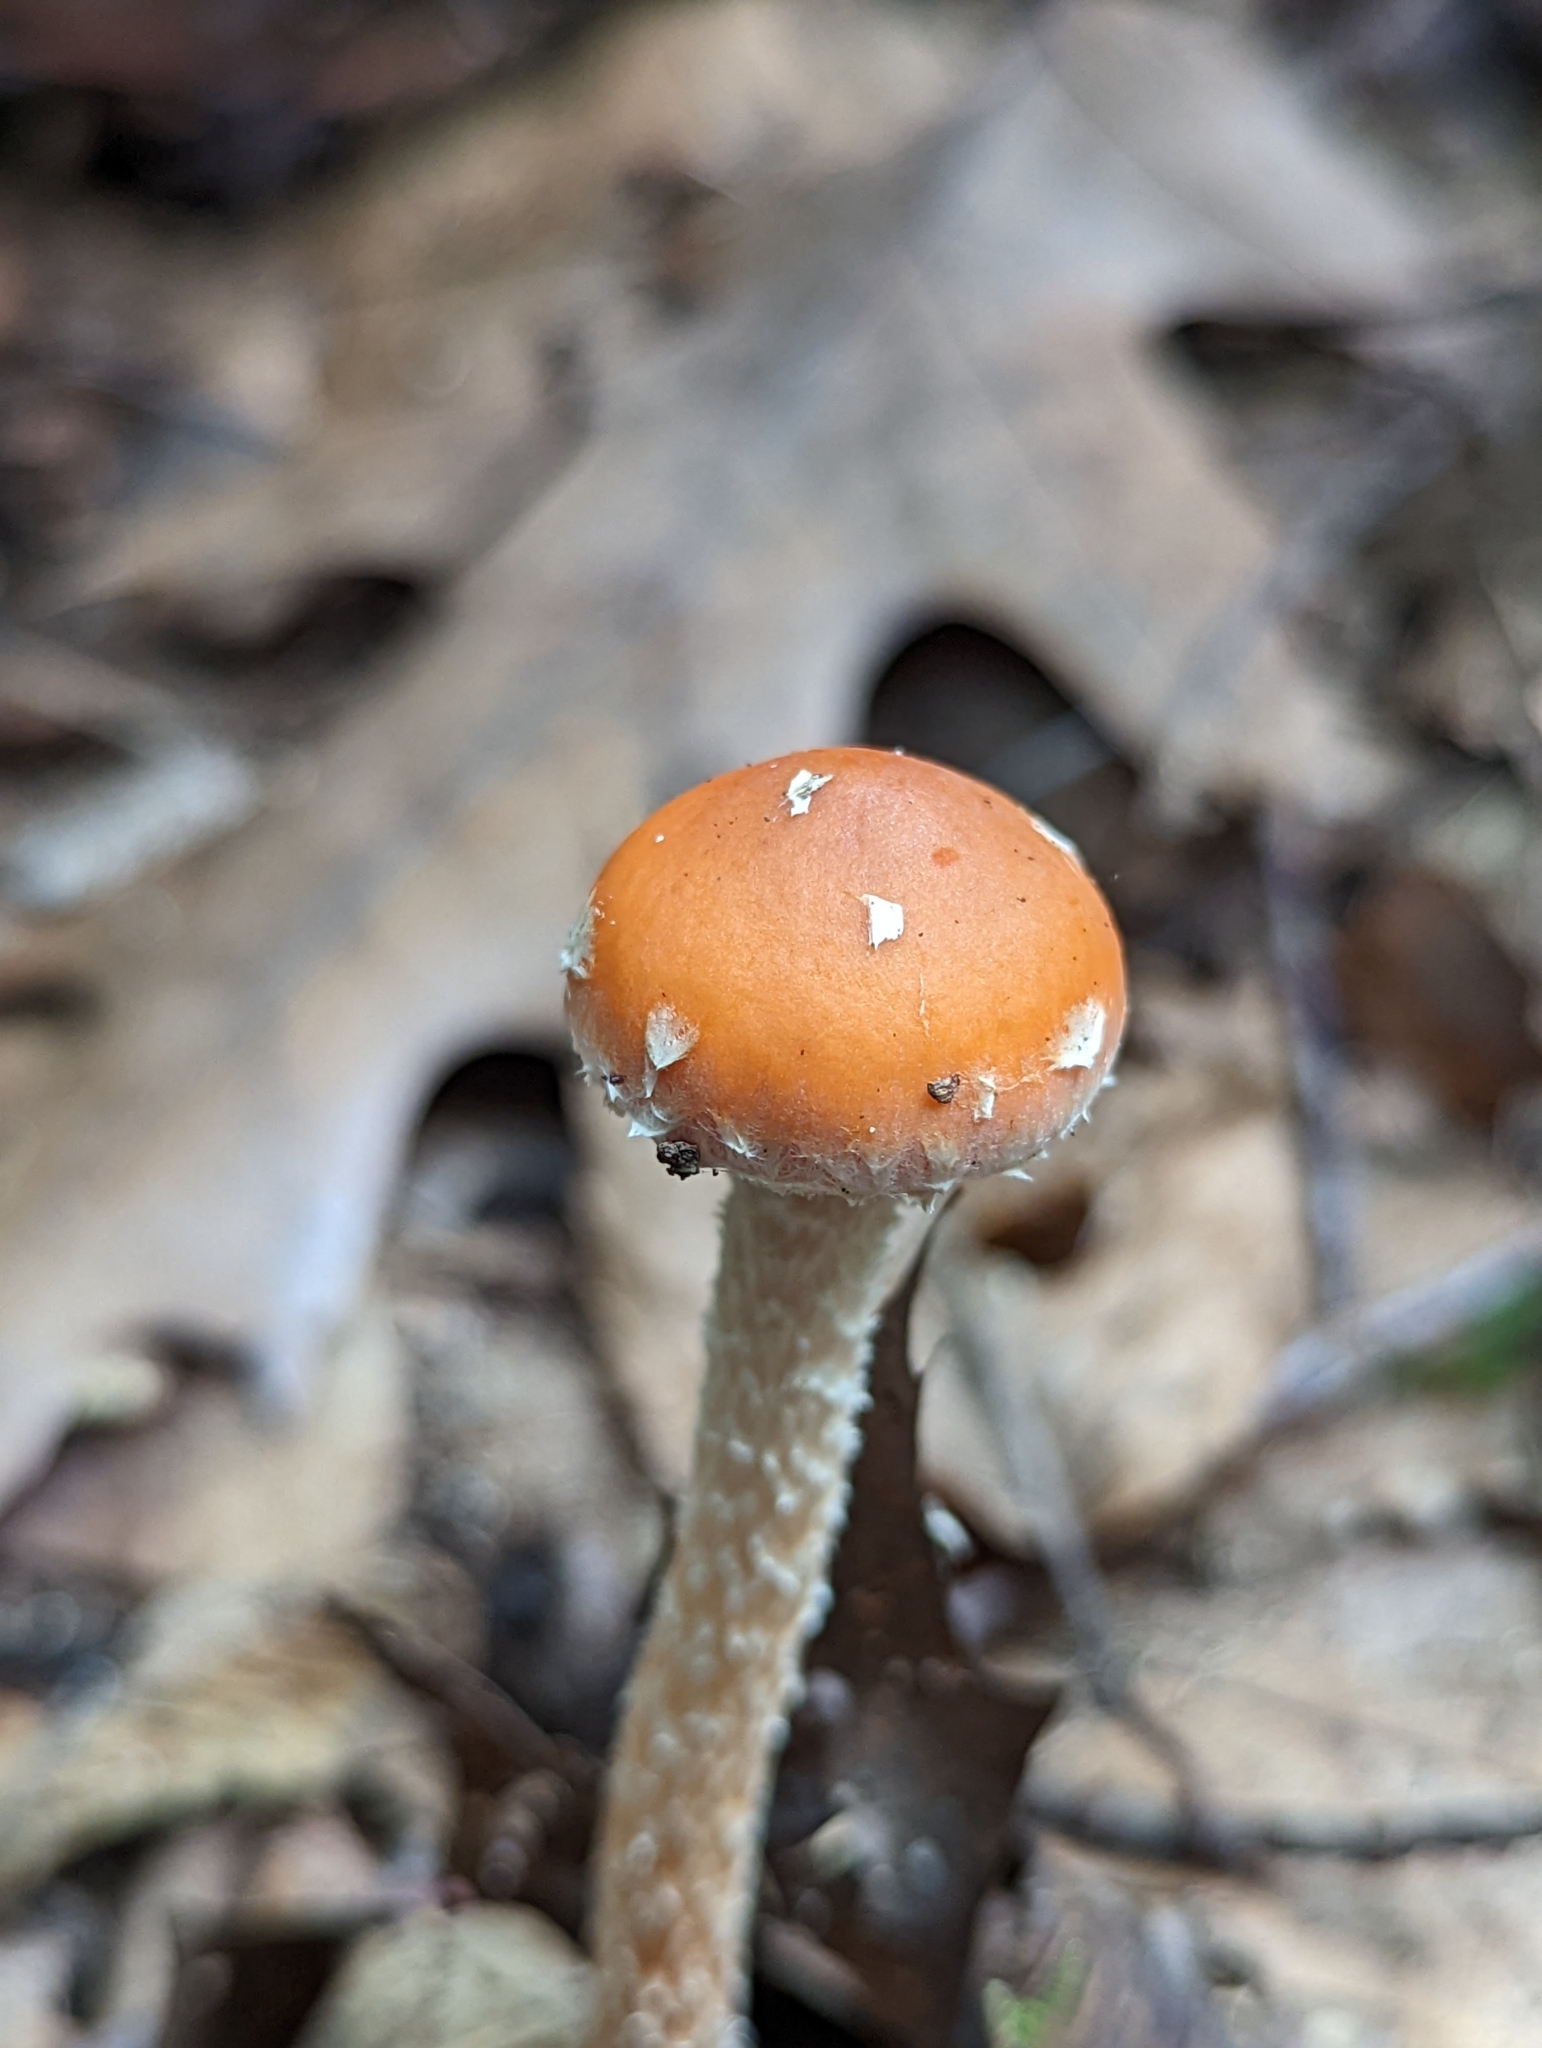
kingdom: Fungi
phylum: Basidiomycota
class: Agaricomycetes
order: Agaricales
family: Strophariaceae
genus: Leratiomyces
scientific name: Leratiomyces squamosus
